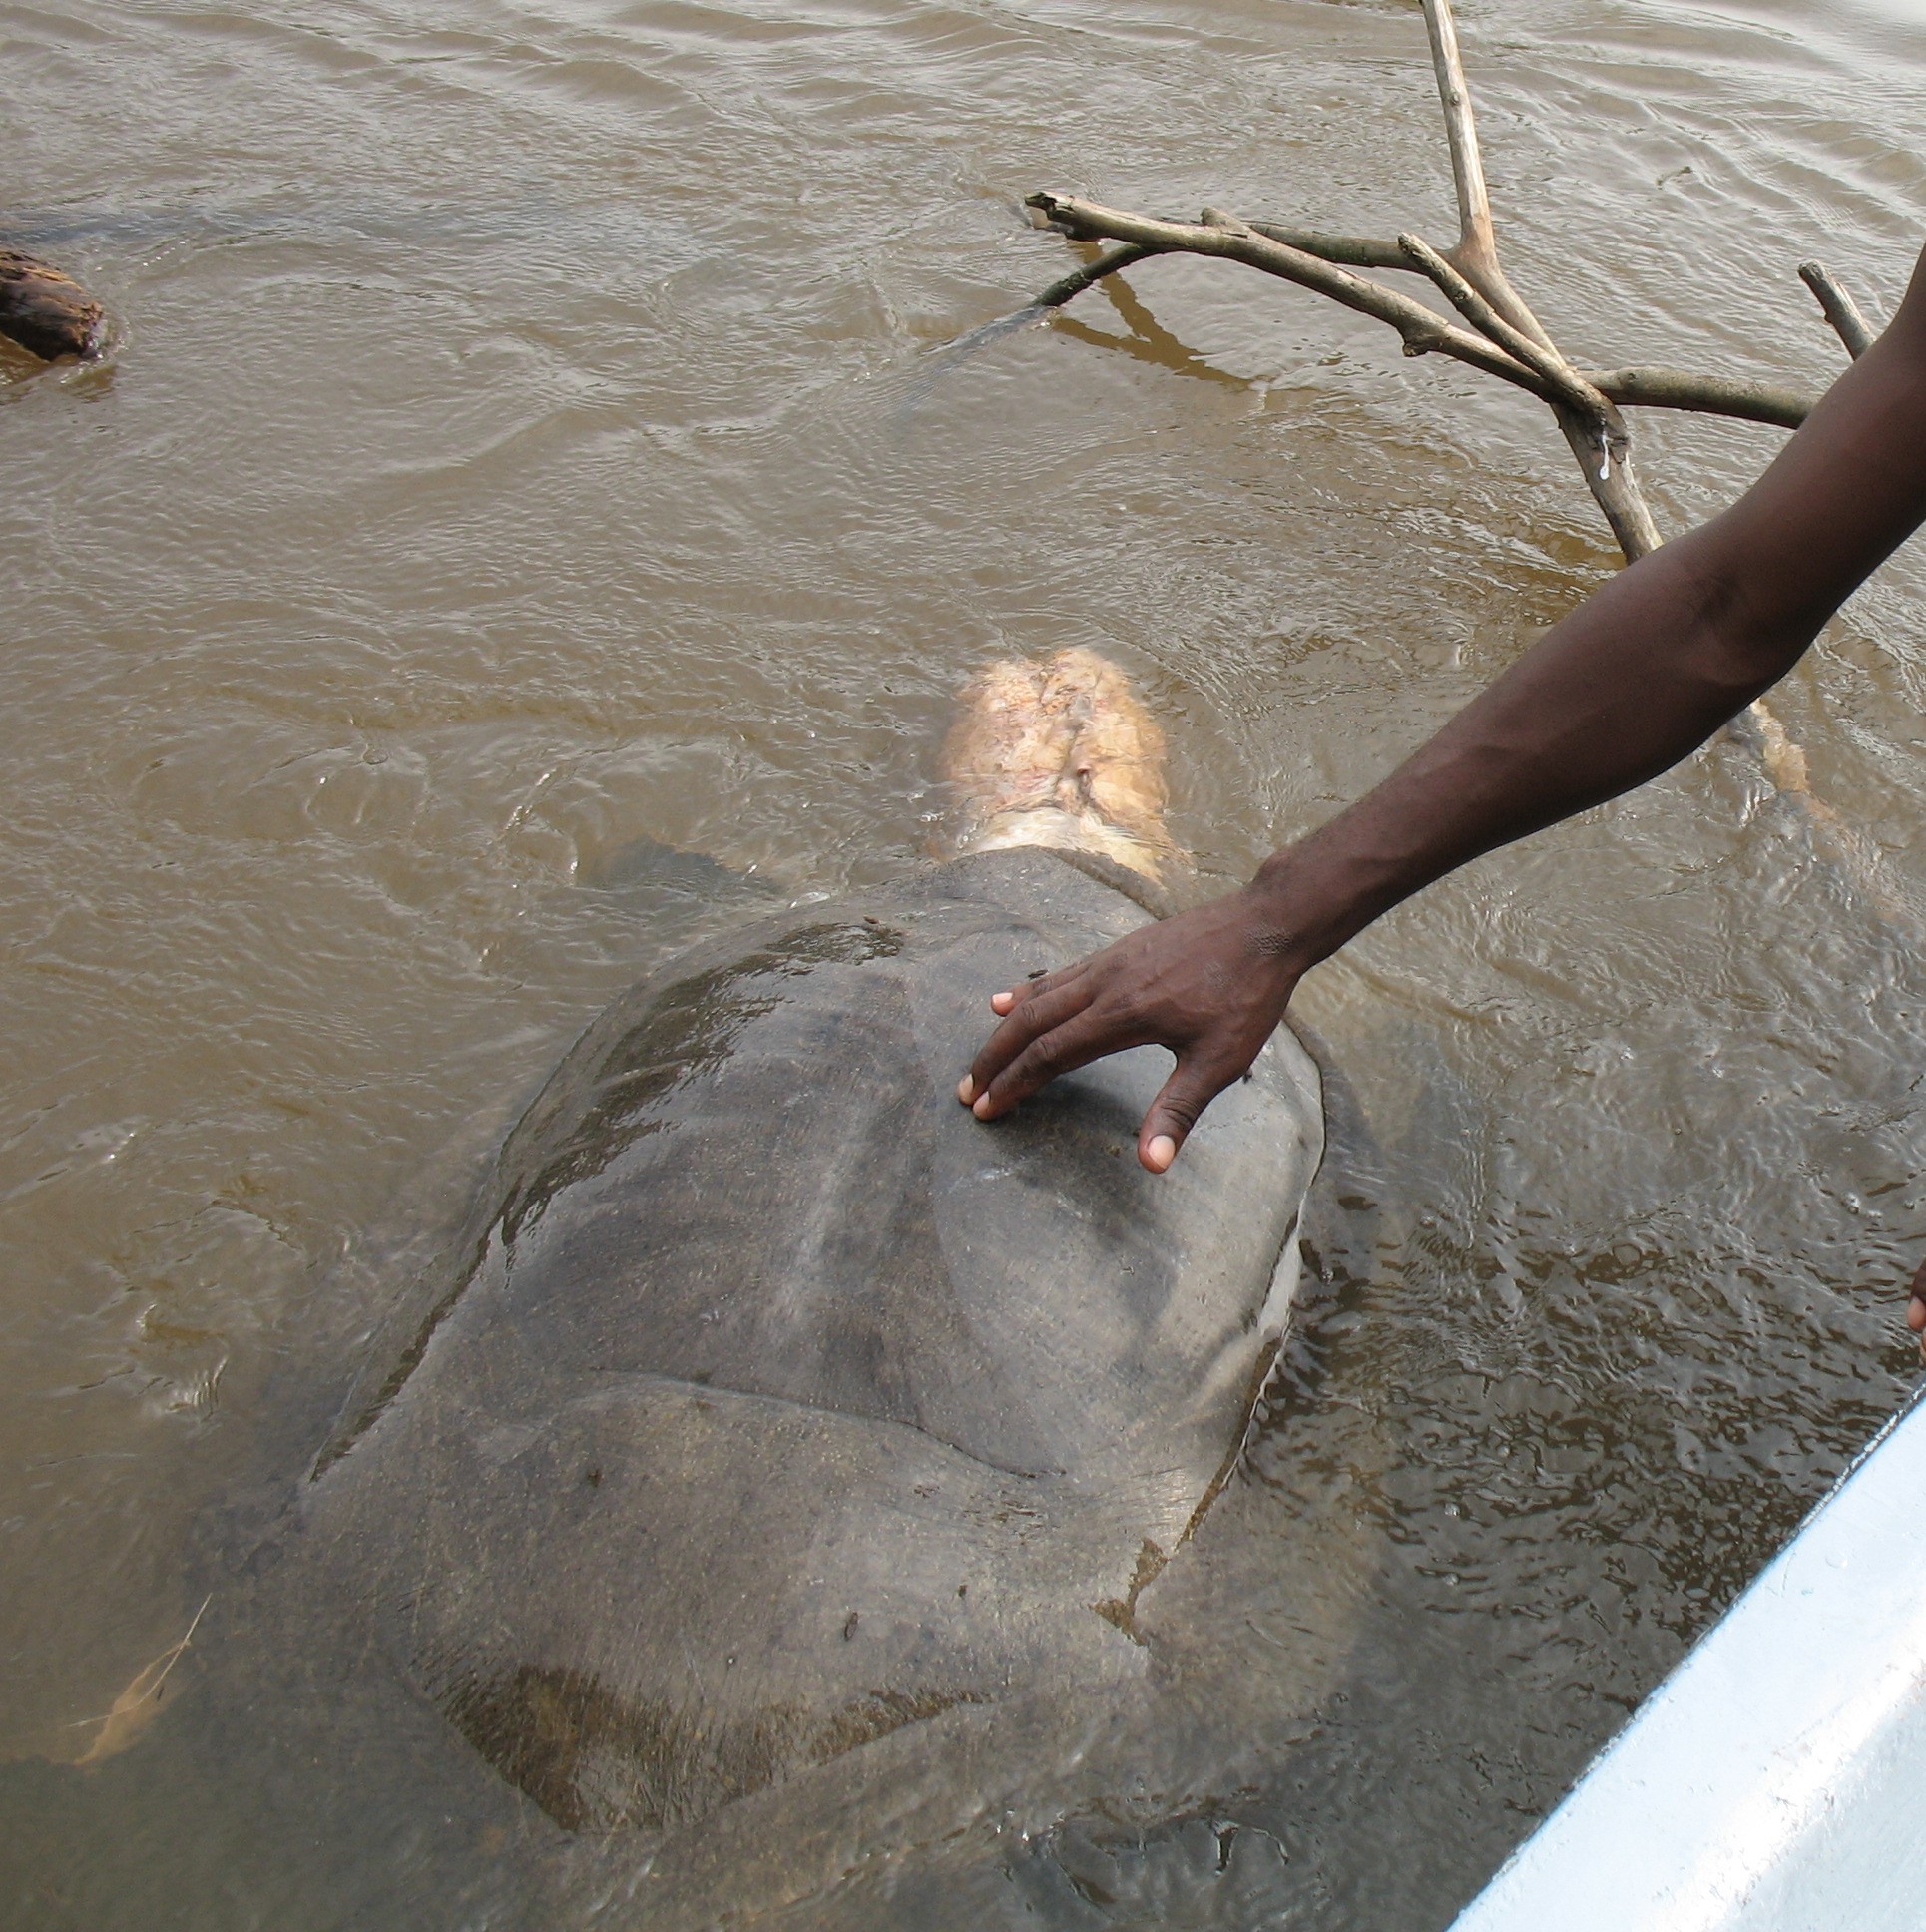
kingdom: Animalia
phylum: Chordata
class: Testudines
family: Trionychidae
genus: Trionyx
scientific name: Trionyx triunguis
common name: African softshell turtle
